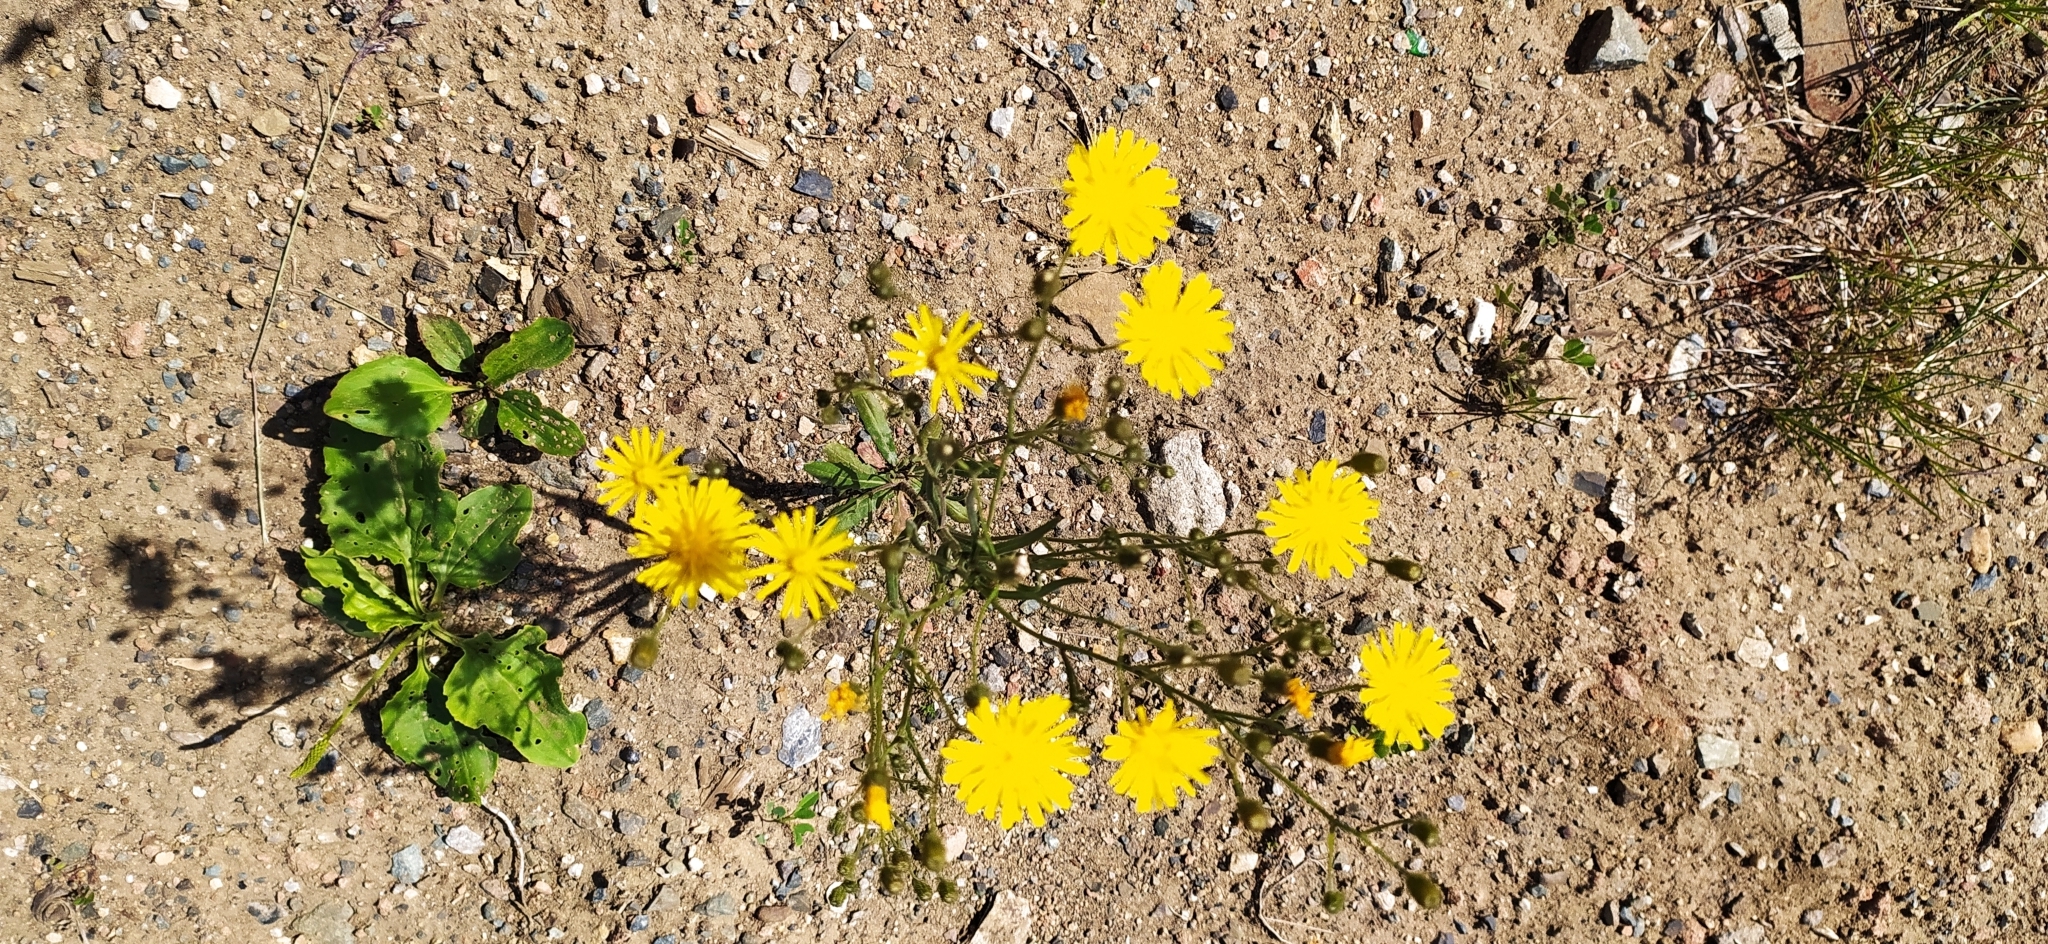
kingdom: Plantae
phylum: Tracheophyta
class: Magnoliopsida
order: Asterales
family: Asteraceae
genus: Crepis
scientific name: Crepis tectorum
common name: Narrow-leaved hawk's-beard
